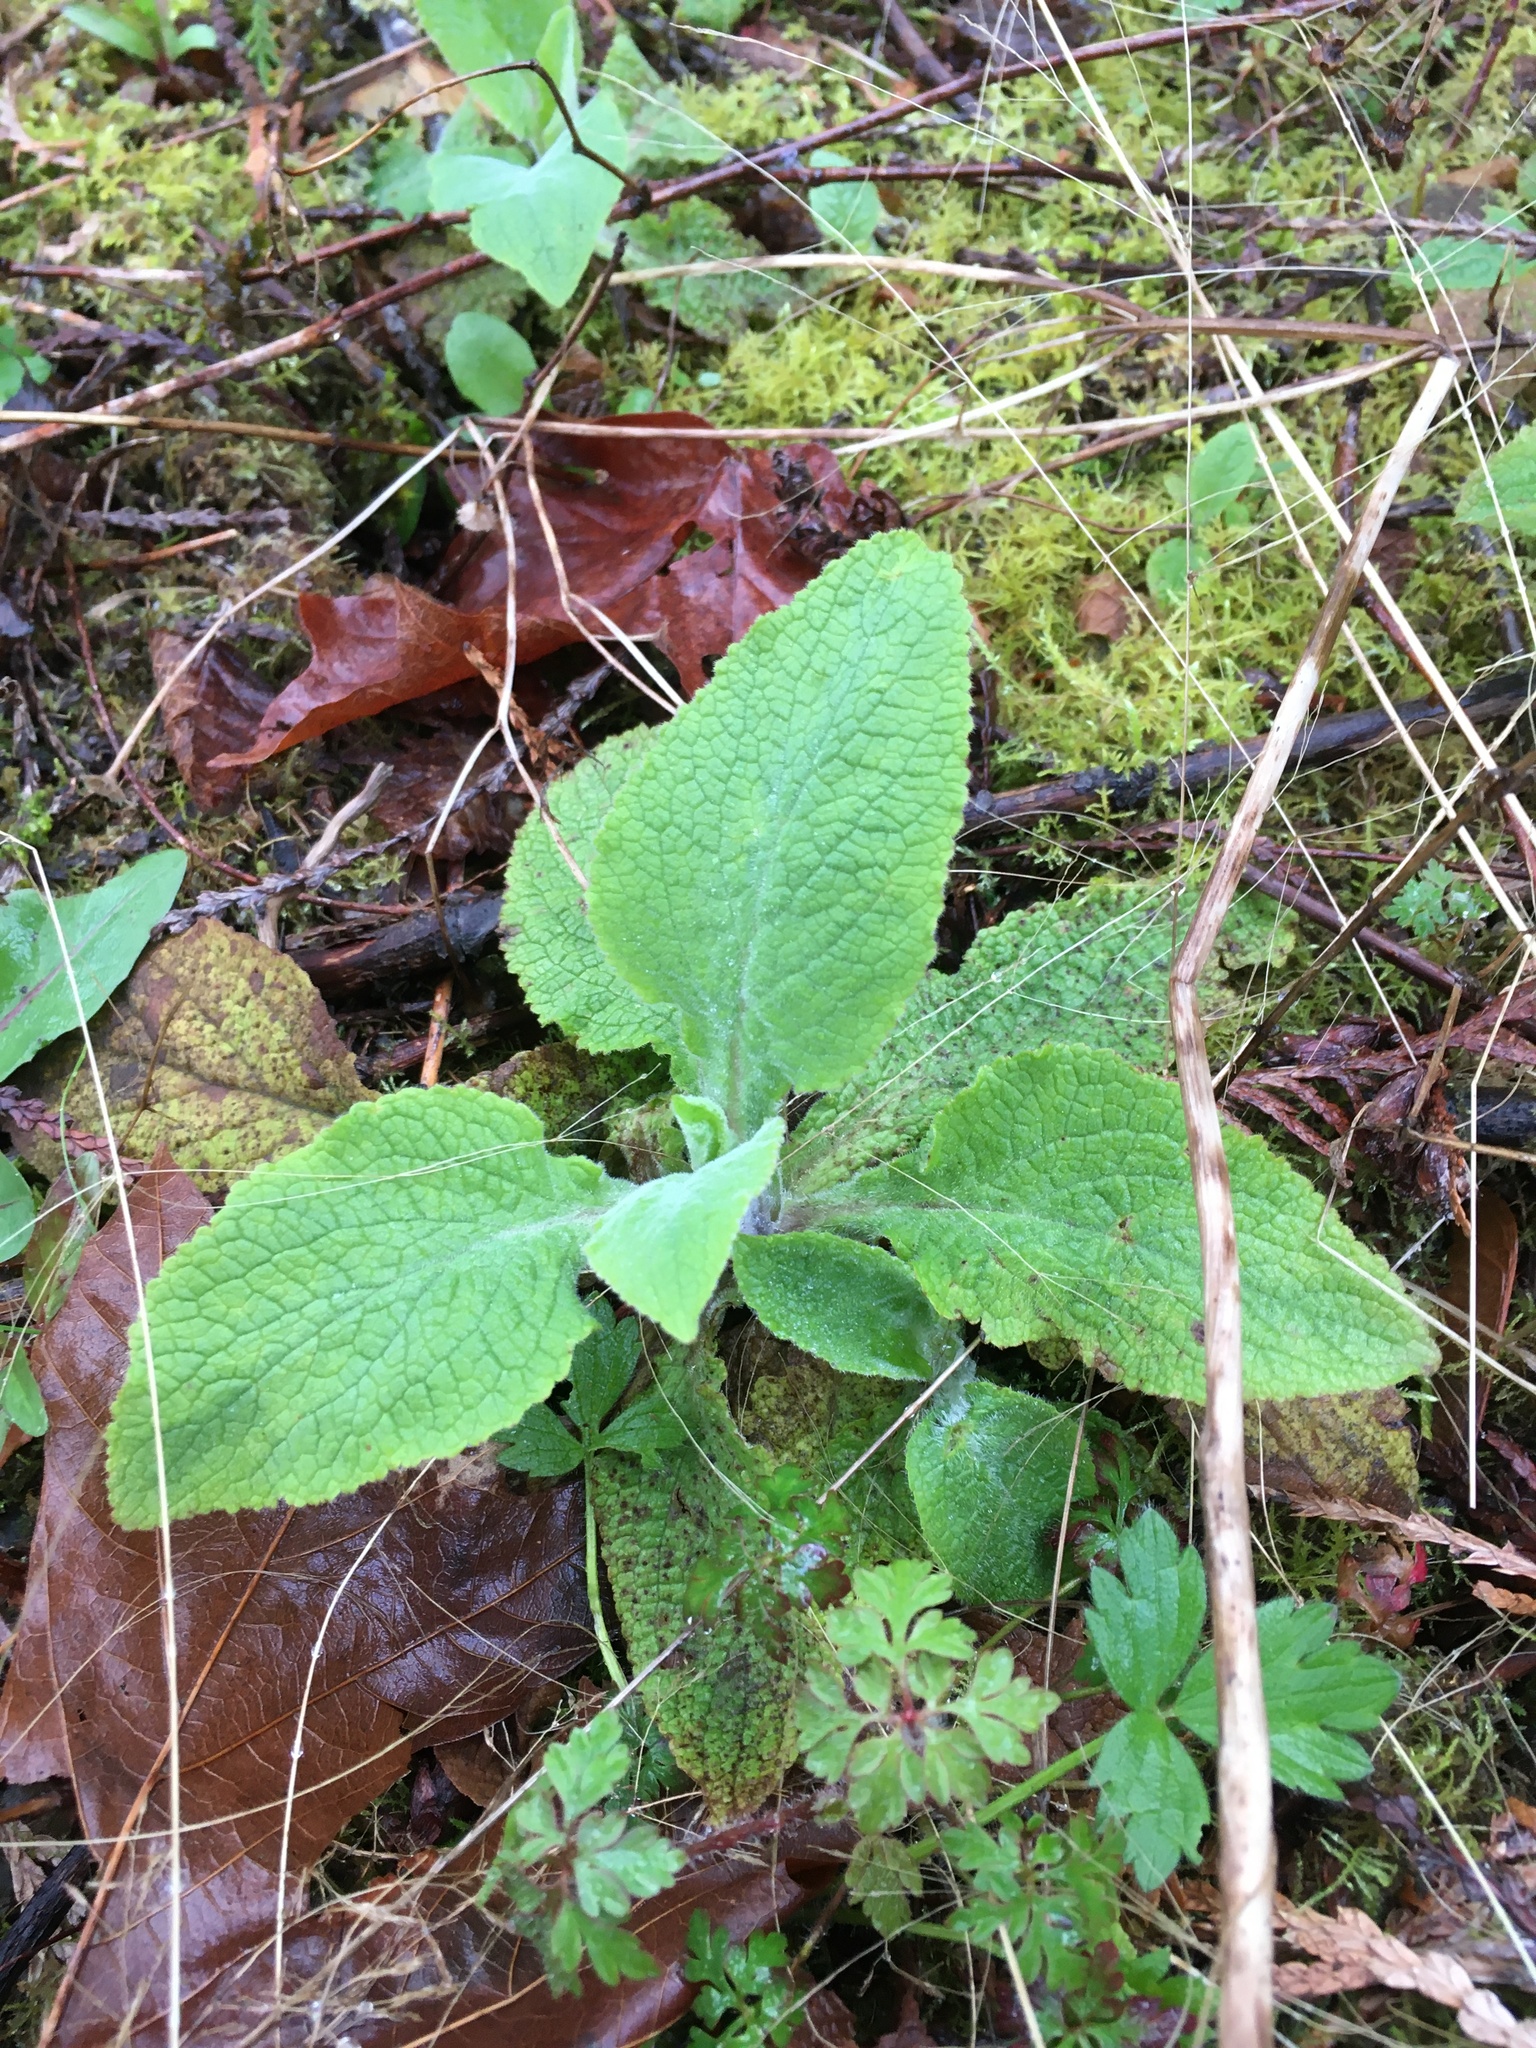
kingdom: Plantae
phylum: Tracheophyta
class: Magnoliopsida
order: Lamiales
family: Plantaginaceae
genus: Digitalis
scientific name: Digitalis purpurea
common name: Foxglove
